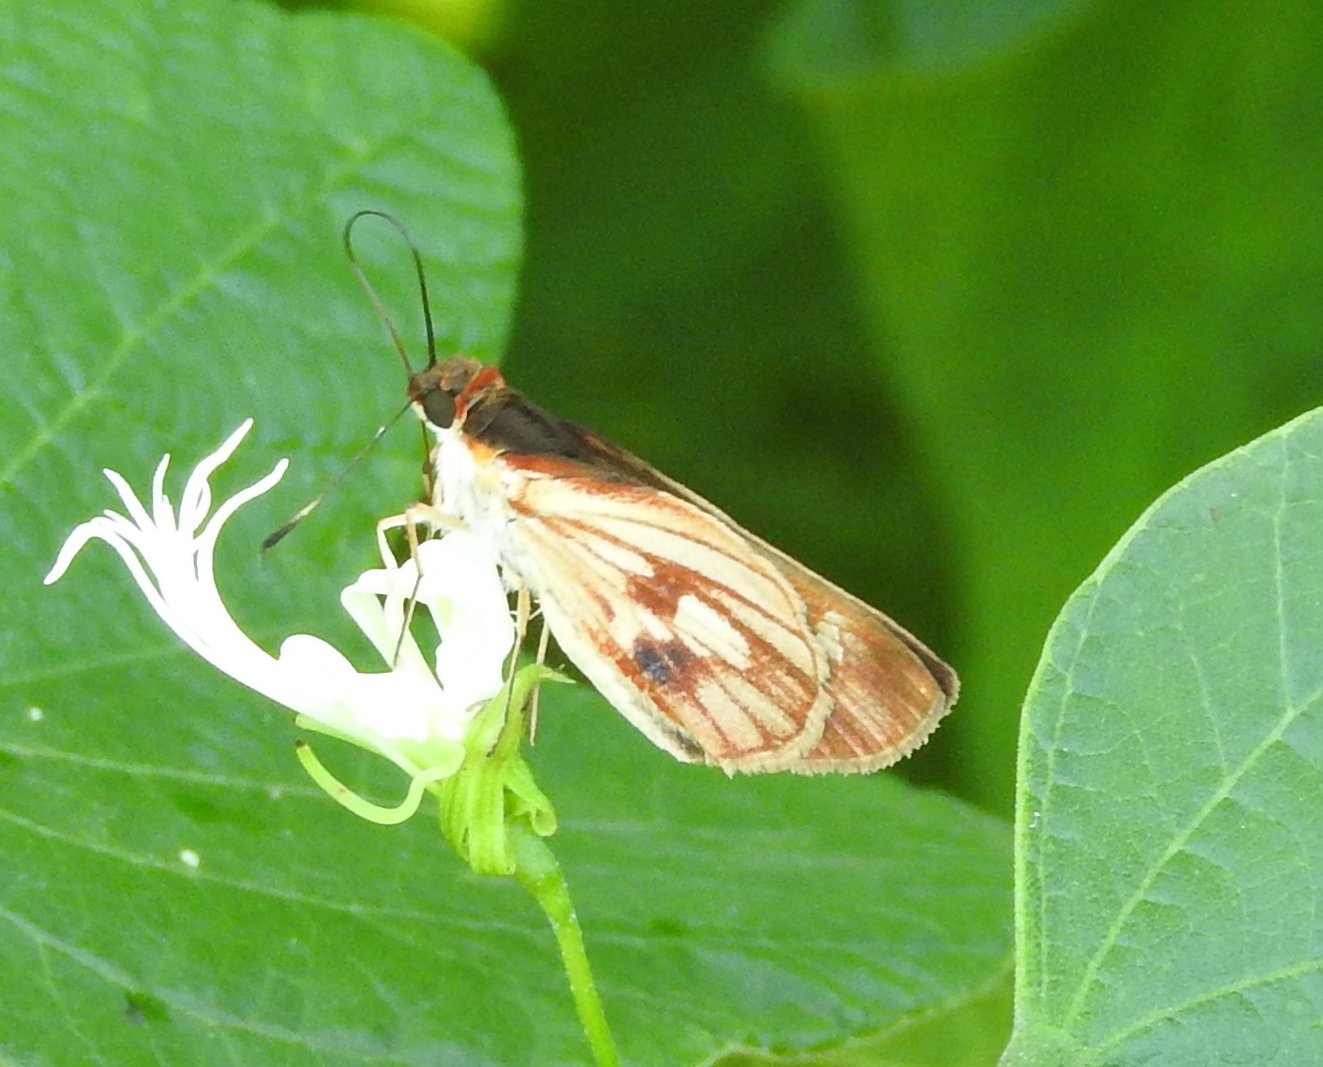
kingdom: Animalia
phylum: Arthropoda
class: Insecta
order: Lepidoptera
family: Hesperiidae
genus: Troyus
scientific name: Troyus fantasos
